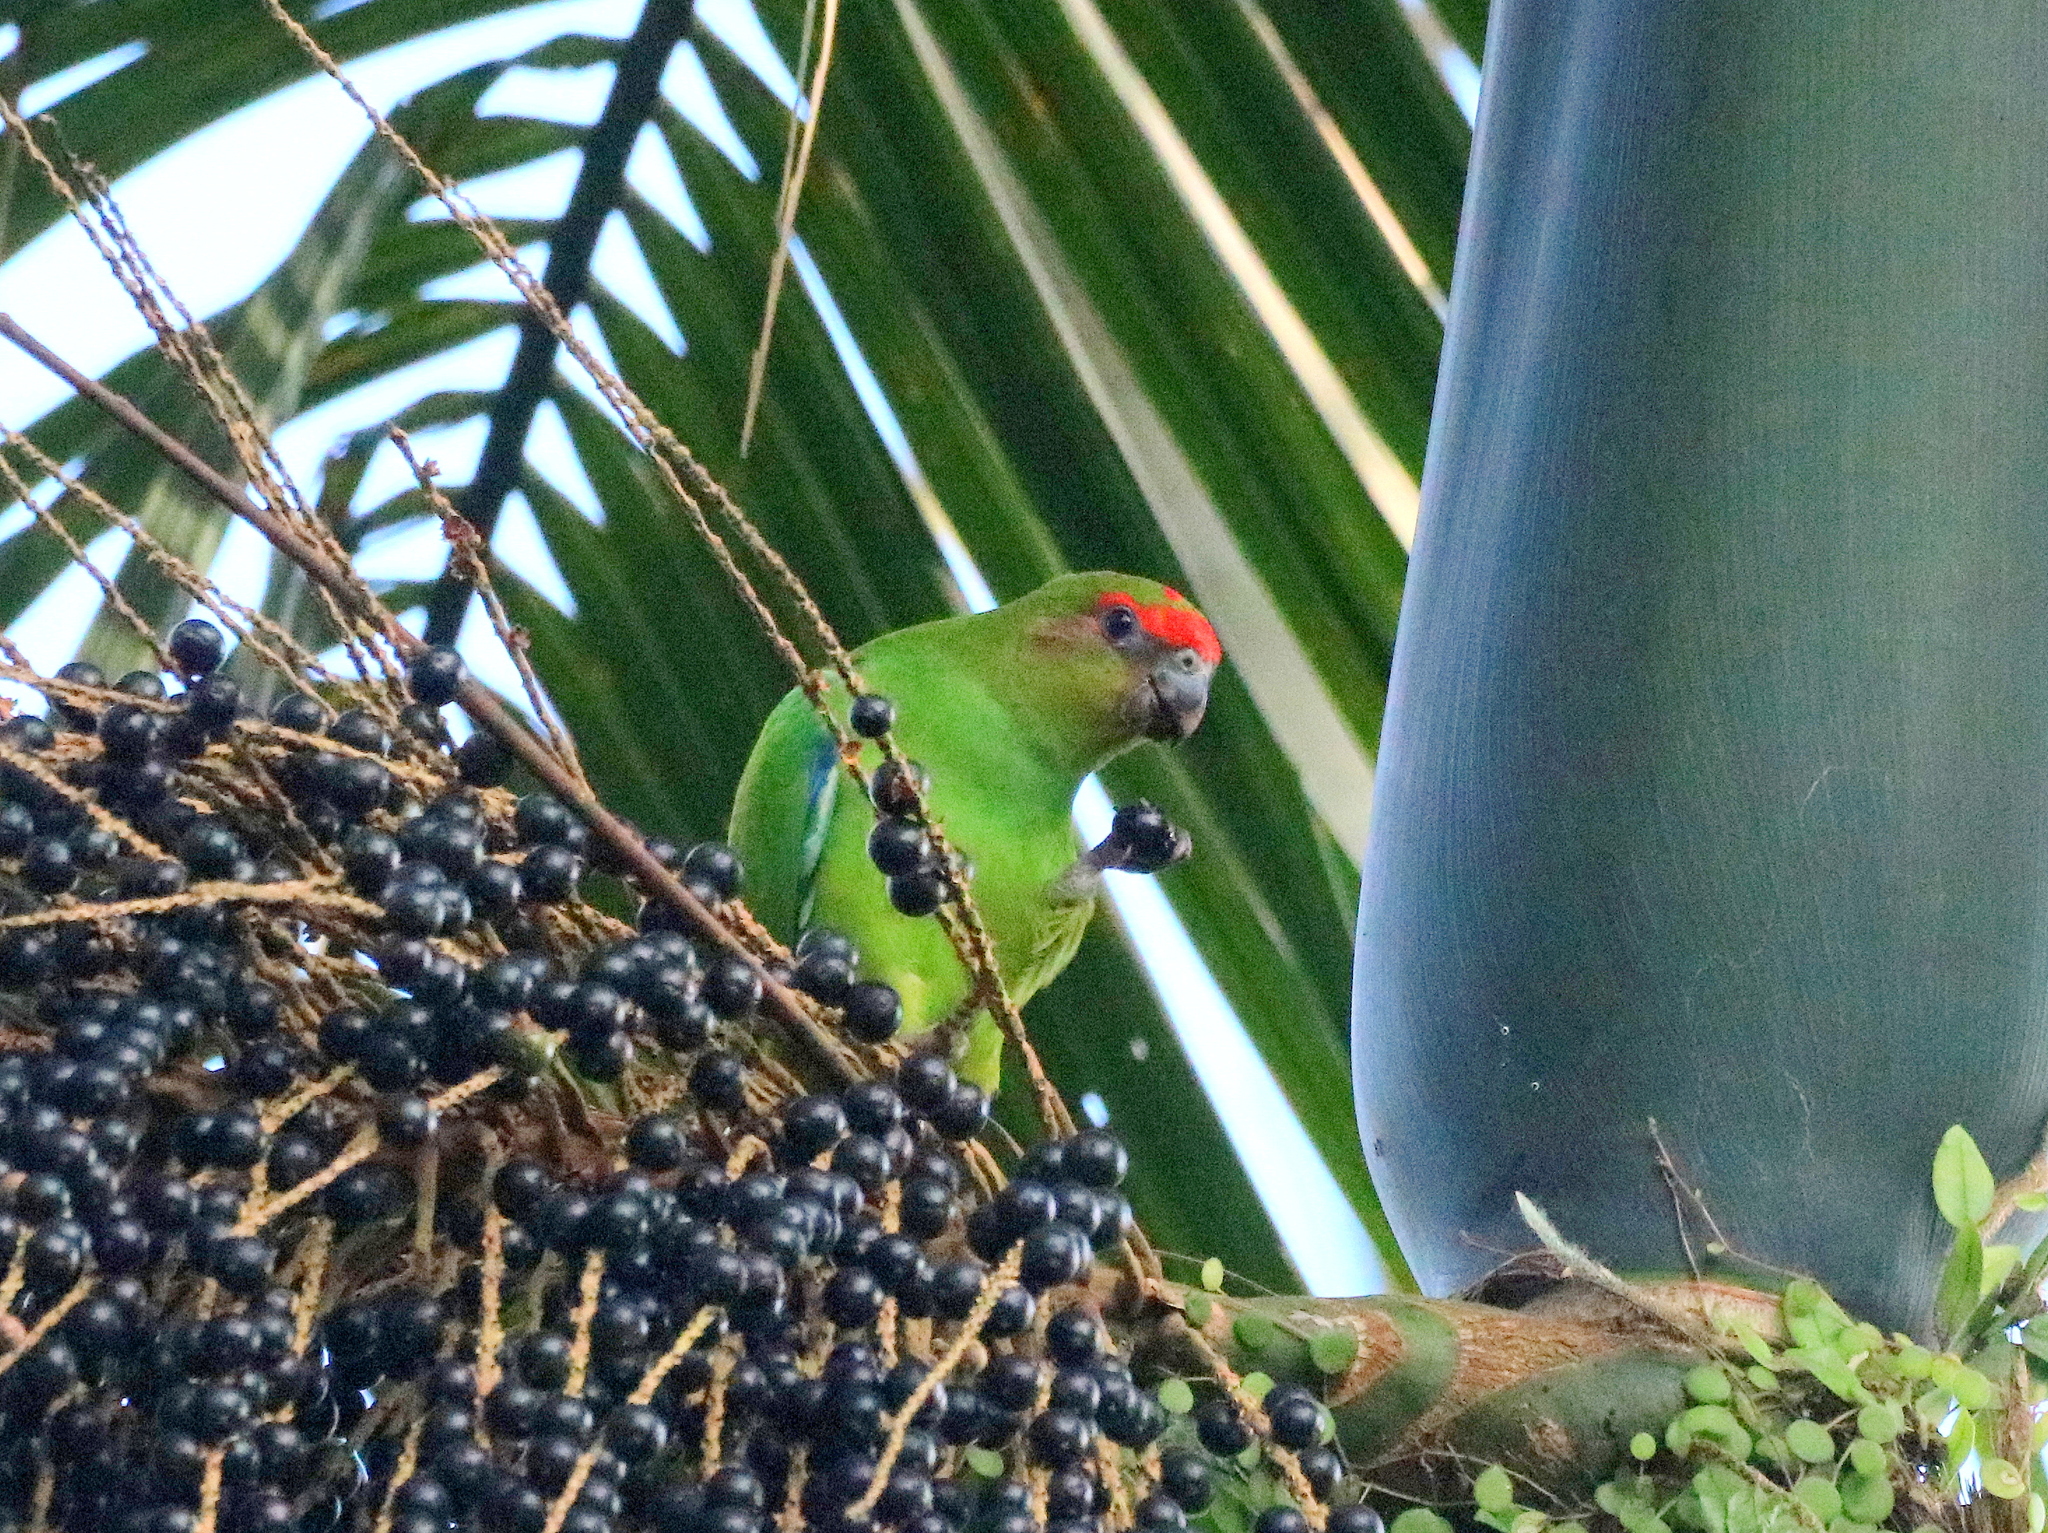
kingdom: Animalia
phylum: Chordata
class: Aves
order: Psittaciformes
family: Psittacidae
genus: Pionopsitta
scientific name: Pionopsitta pileata
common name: Pileated parrot
